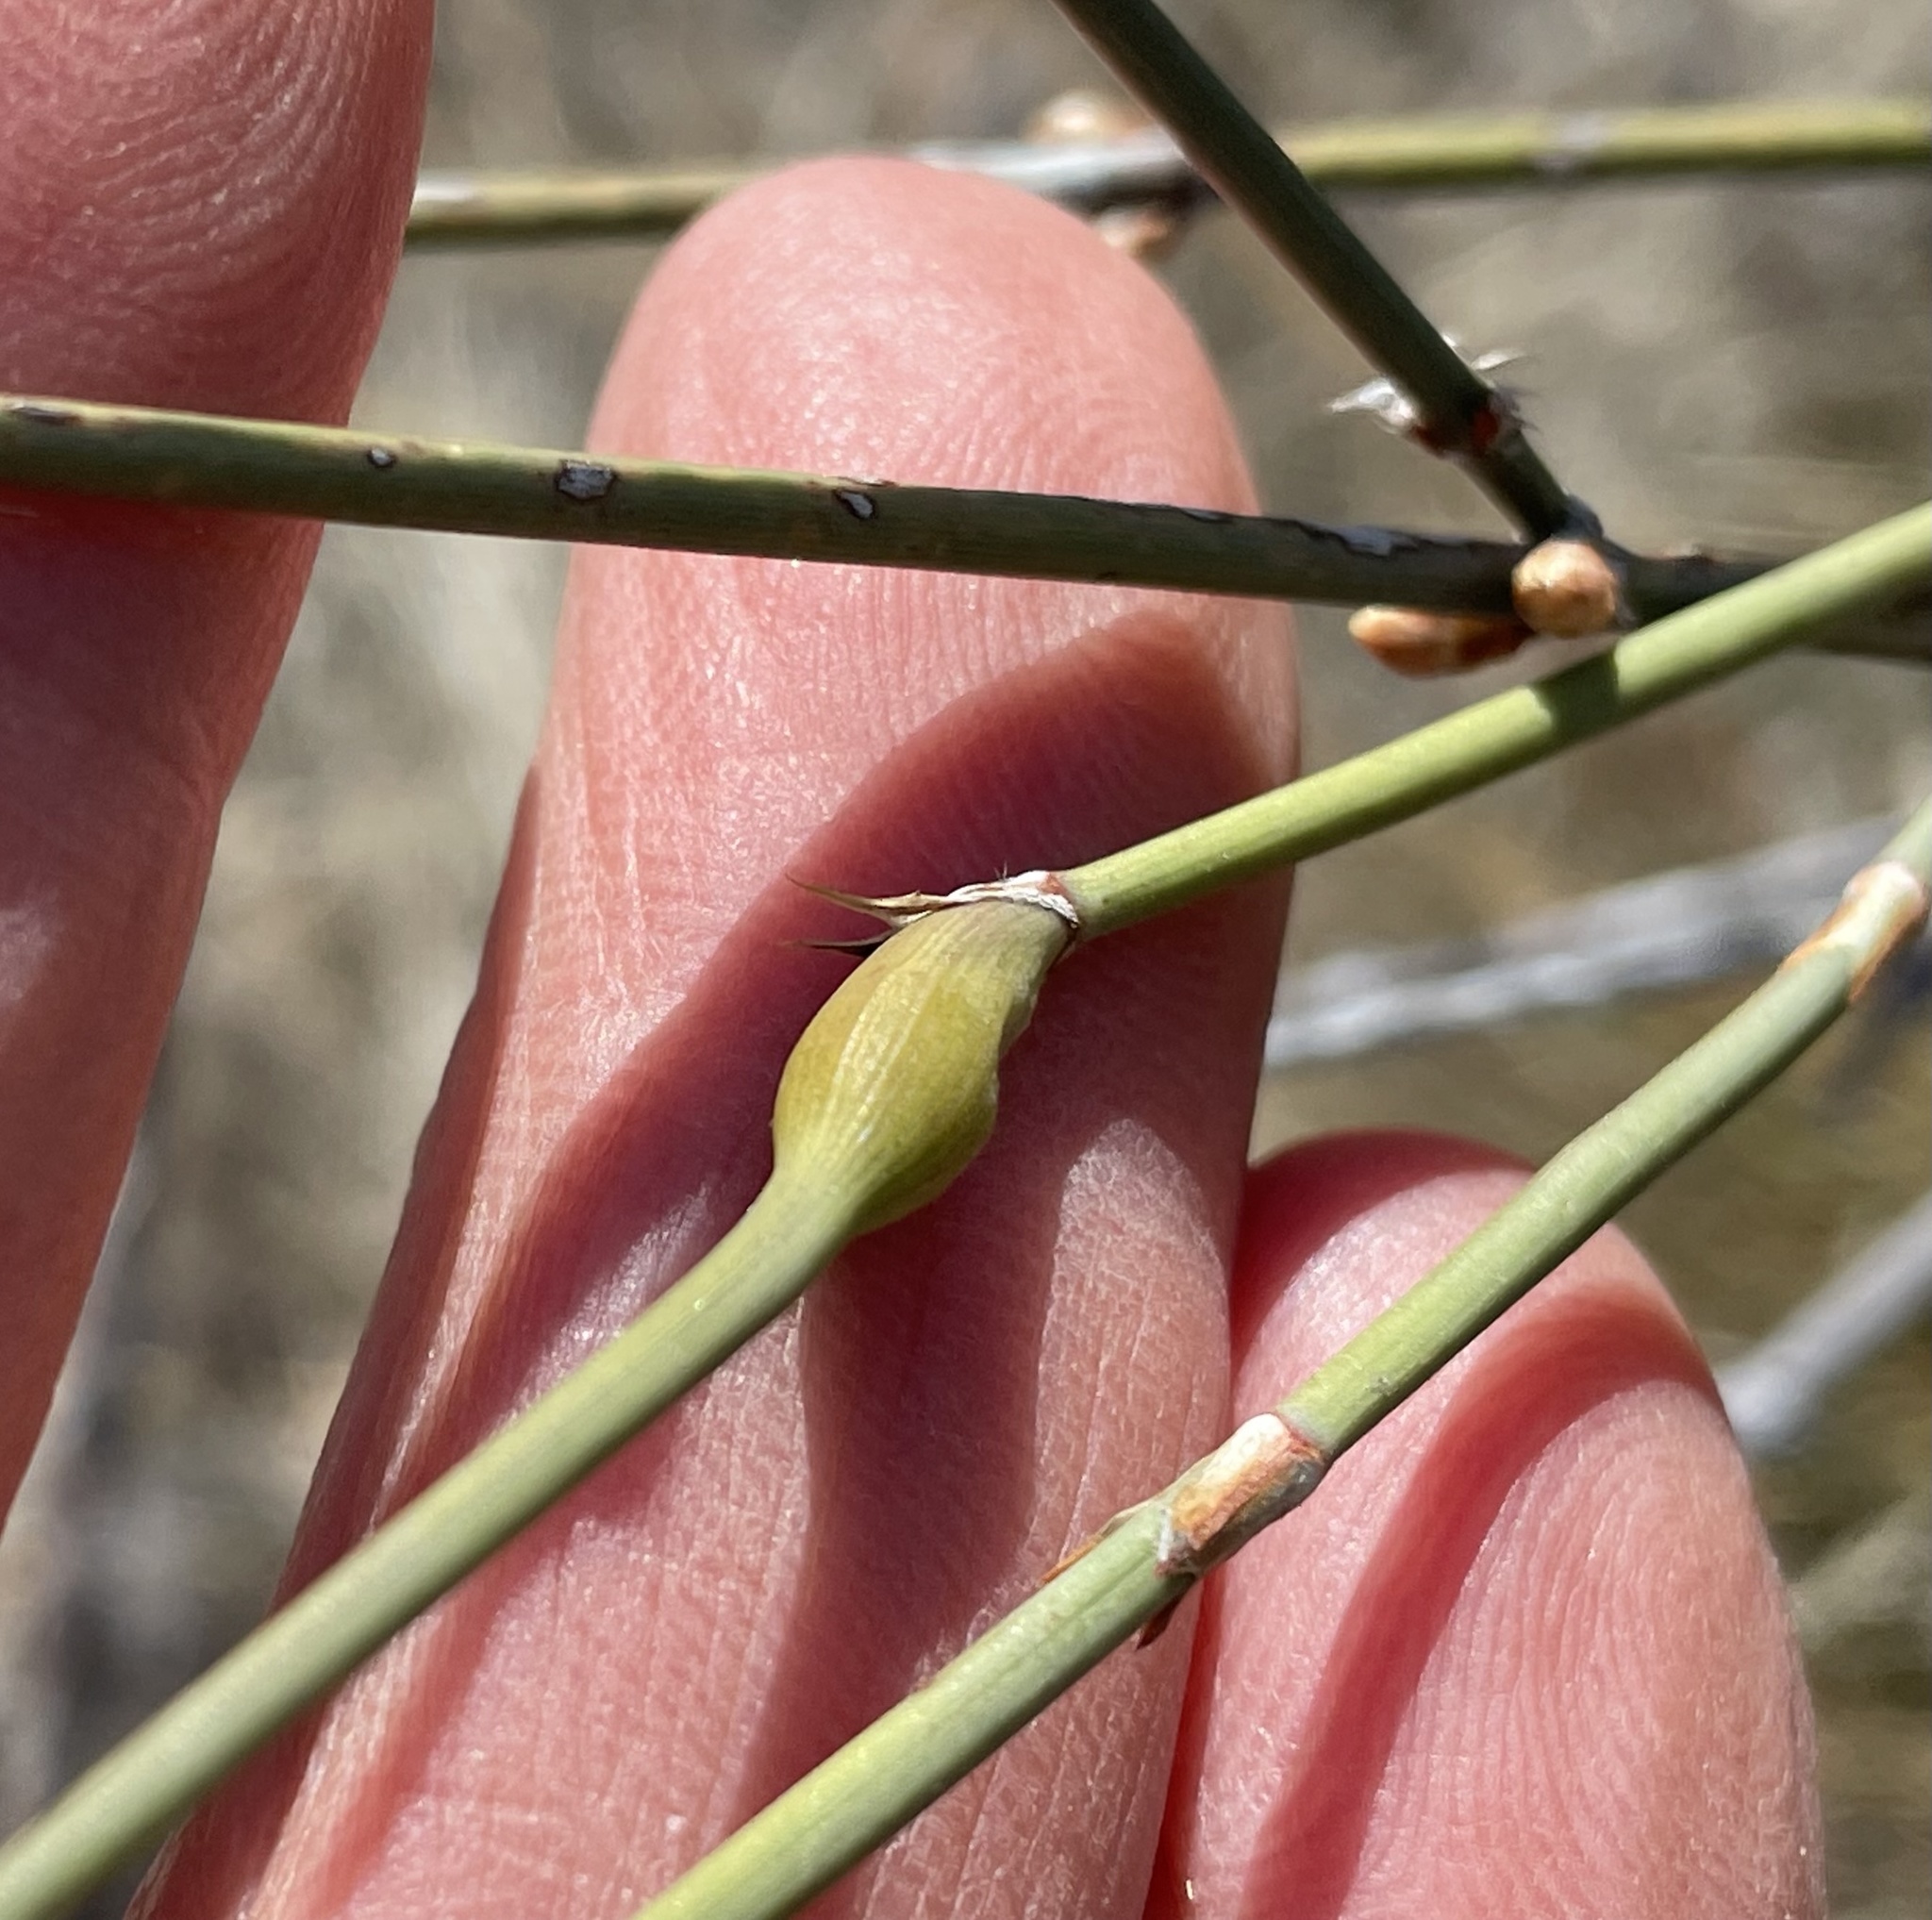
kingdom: Animalia
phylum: Arthropoda
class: Insecta
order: Diptera
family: Cecidomyiidae
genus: Lasioptera
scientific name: Lasioptera ephedrae
